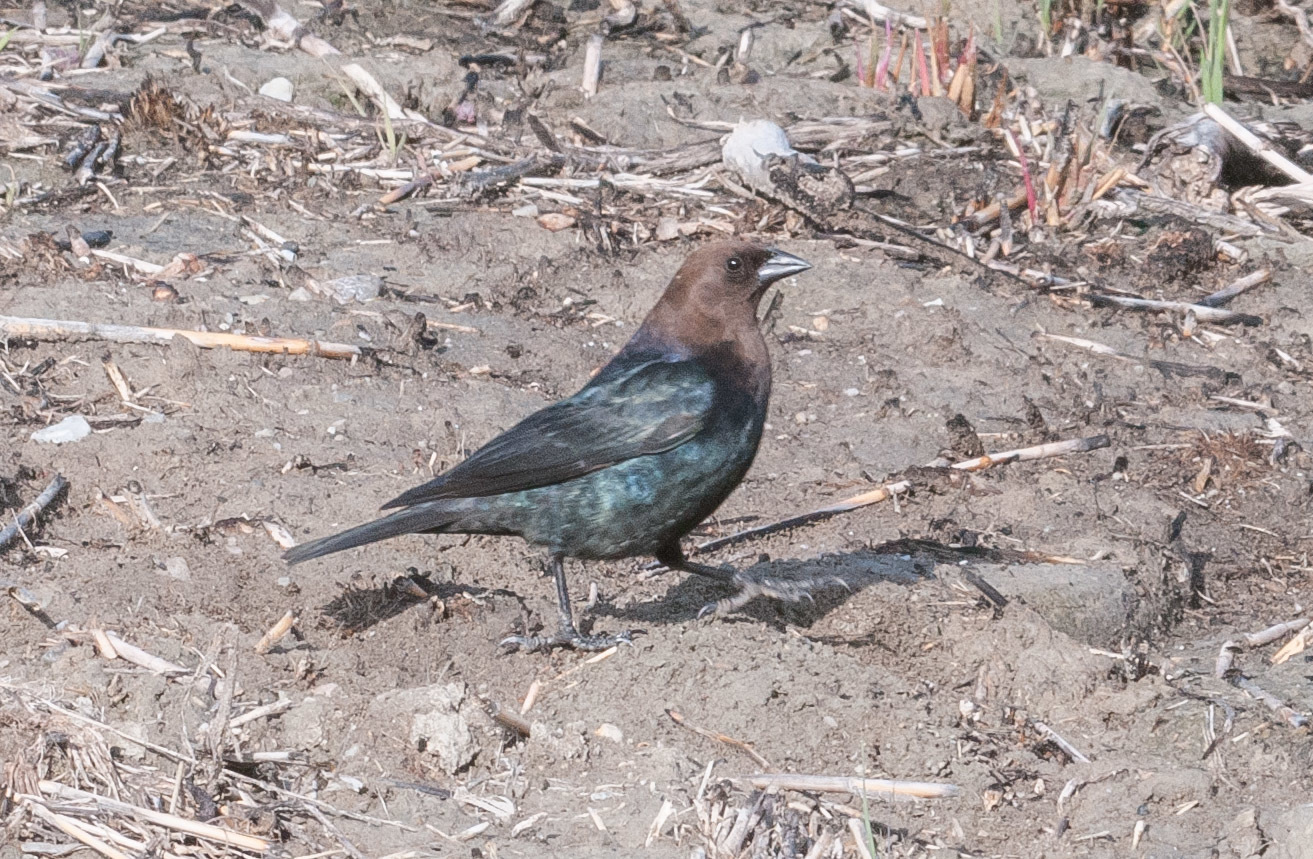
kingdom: Animalia
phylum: Chordata
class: Aves
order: Passeriformes
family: Icteridae
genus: Molothrus
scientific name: Molothrus ater
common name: Brown-headed cowbird
